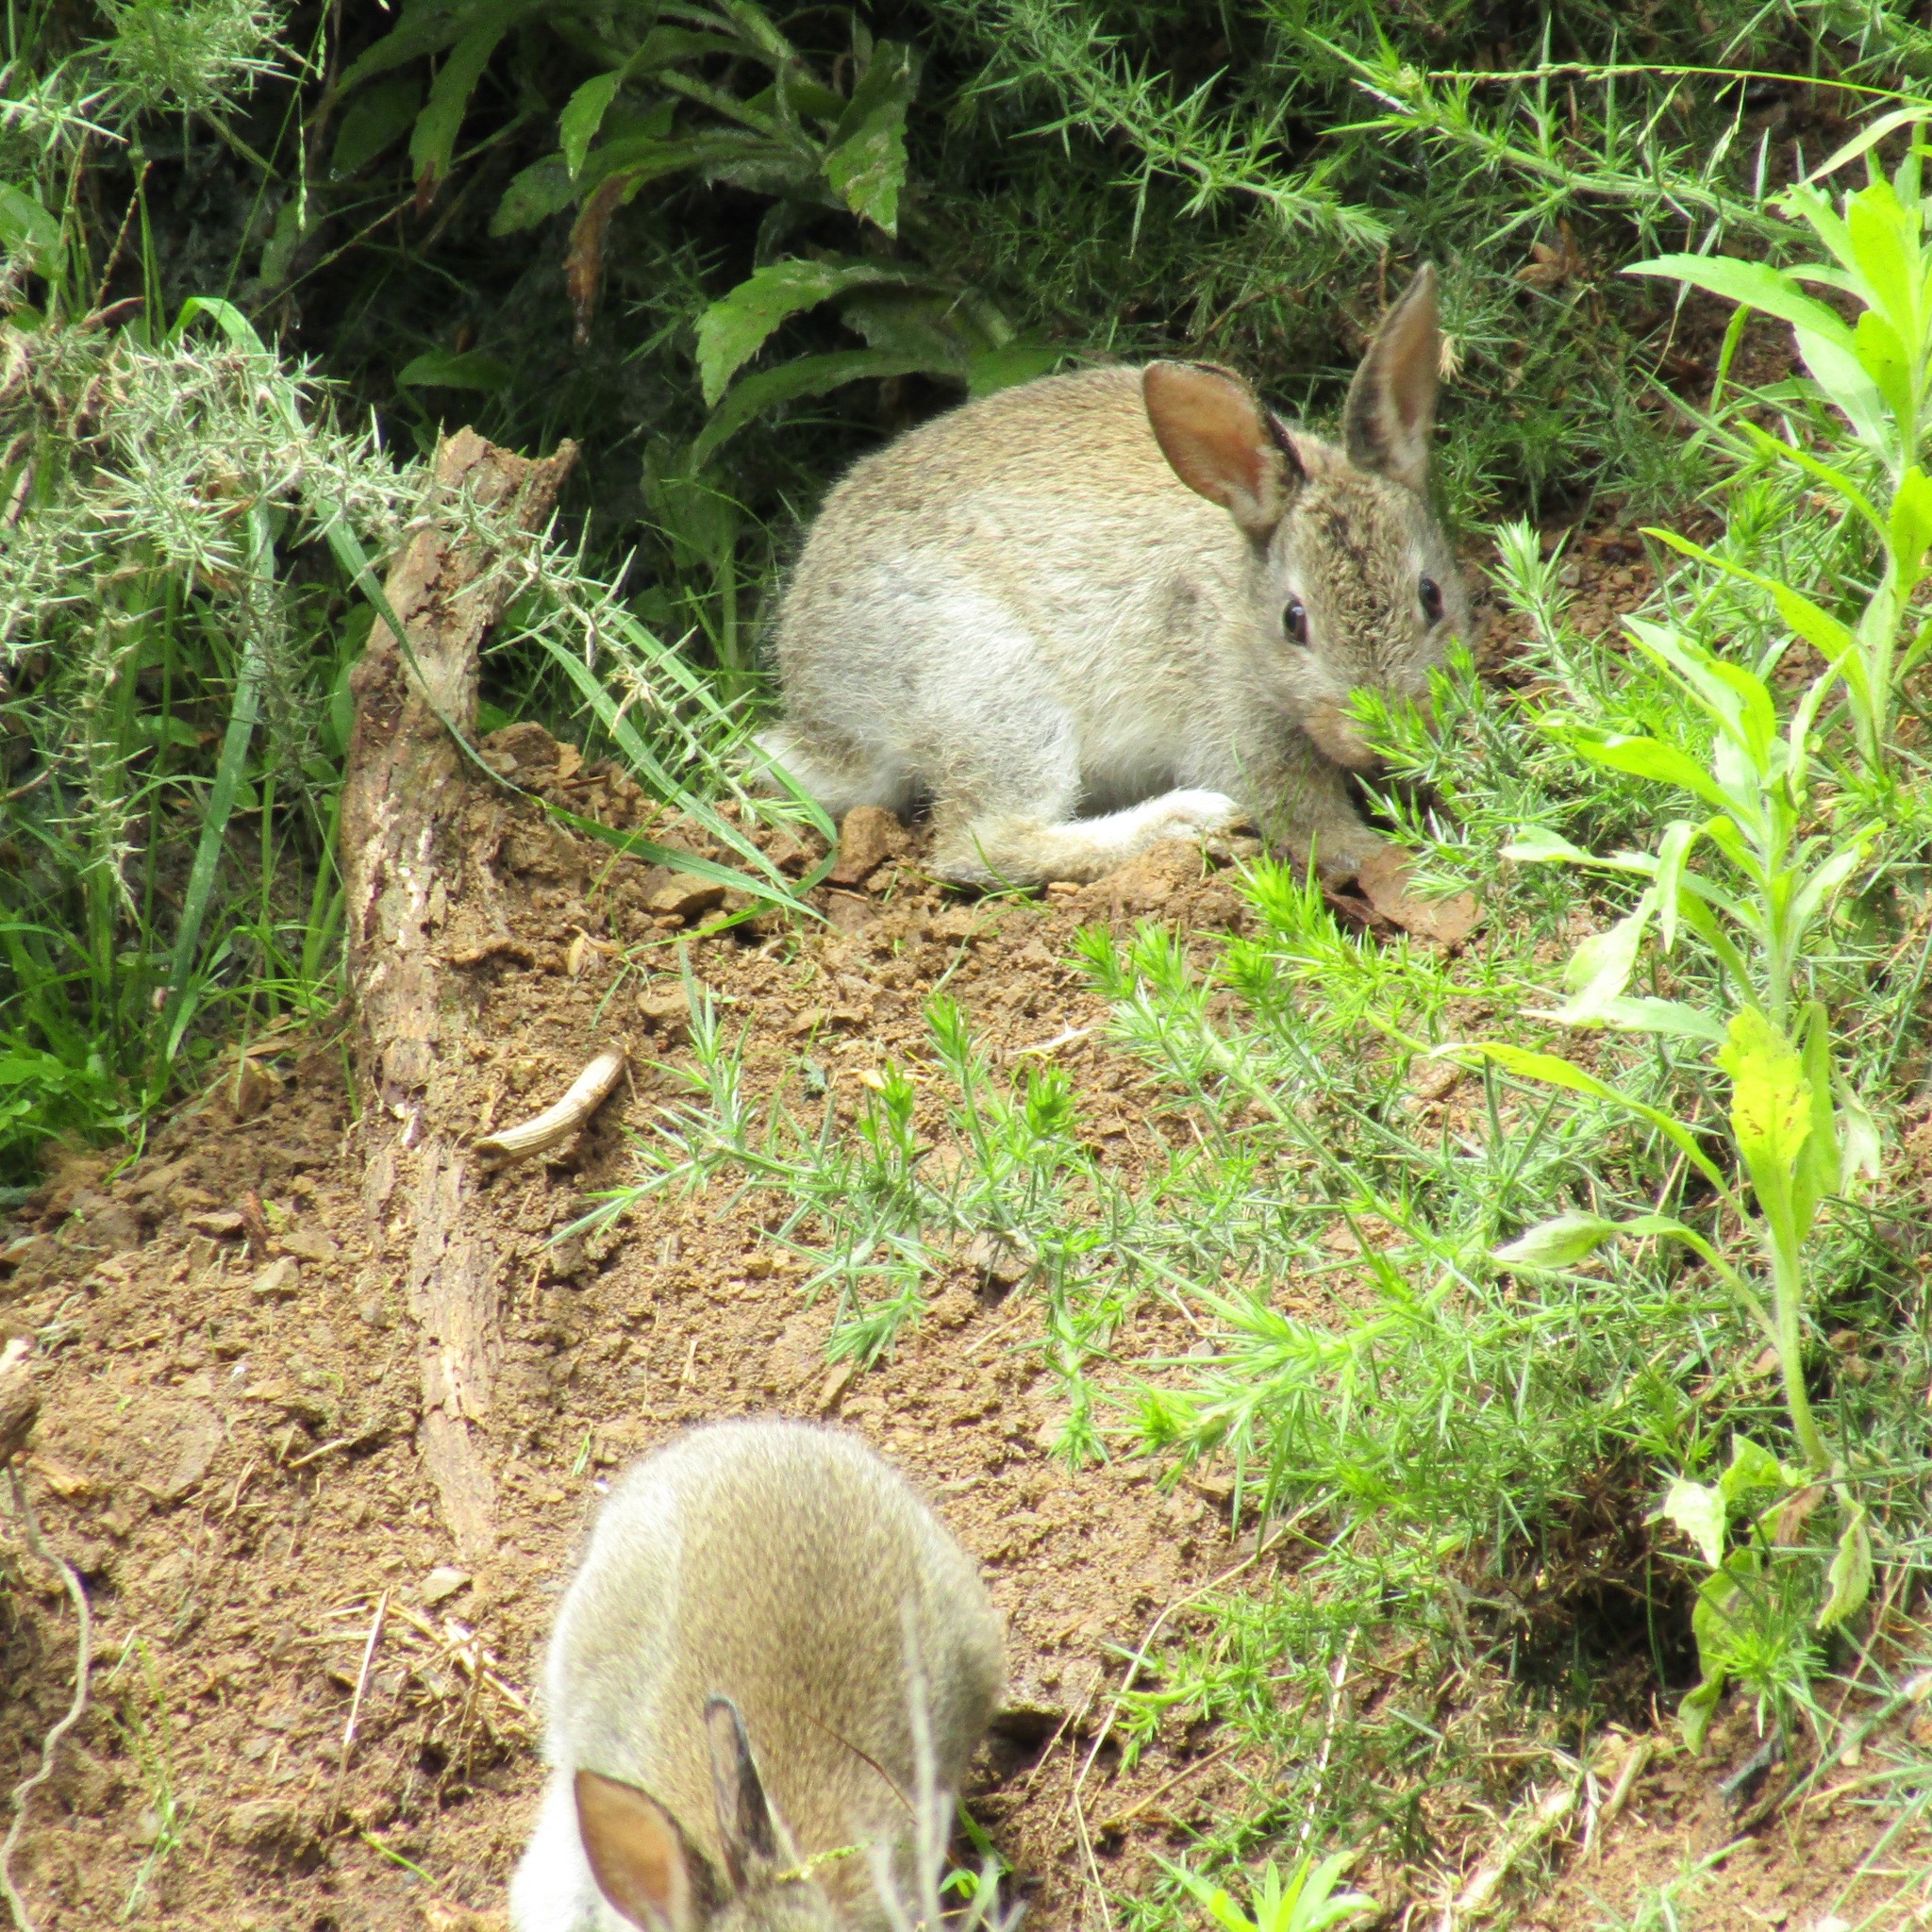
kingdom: Animalia
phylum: Chordata
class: Mammalia
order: Lagomorpha
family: Leporidae
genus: Oryctolagus
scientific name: Oryctolagus cuniculus
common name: European rabbit
